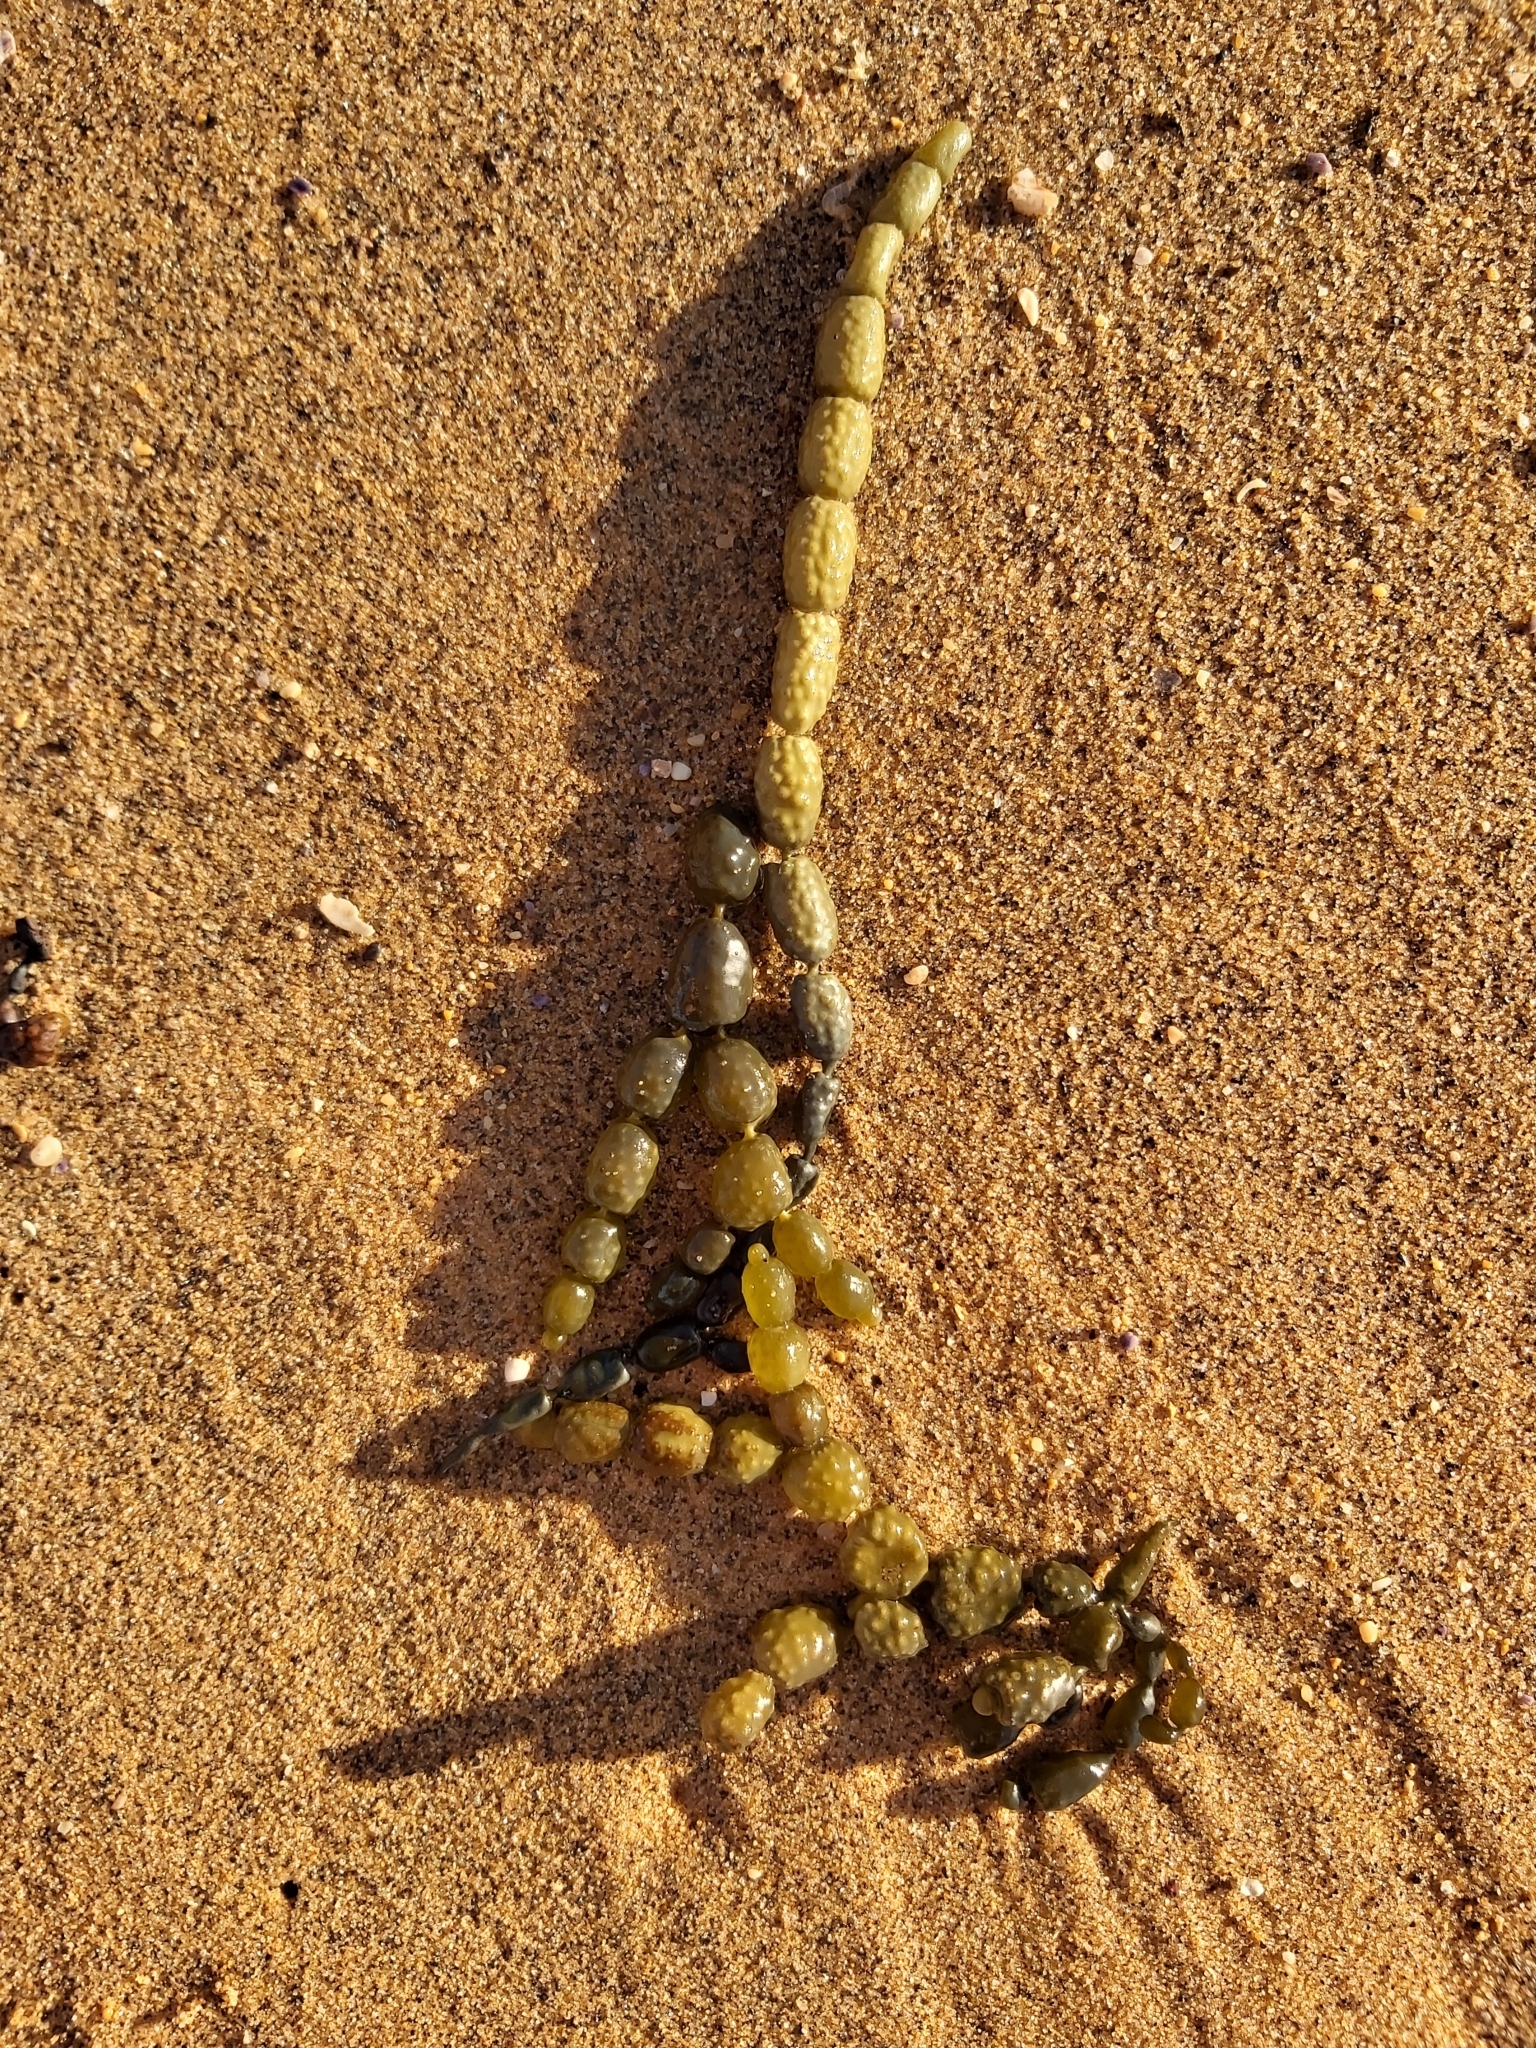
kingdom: Chromista
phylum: Ochrophyta
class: Phaeophyceae
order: Fucales
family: Hormosiraceae
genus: Hormosira
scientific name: Hormosira banksii
